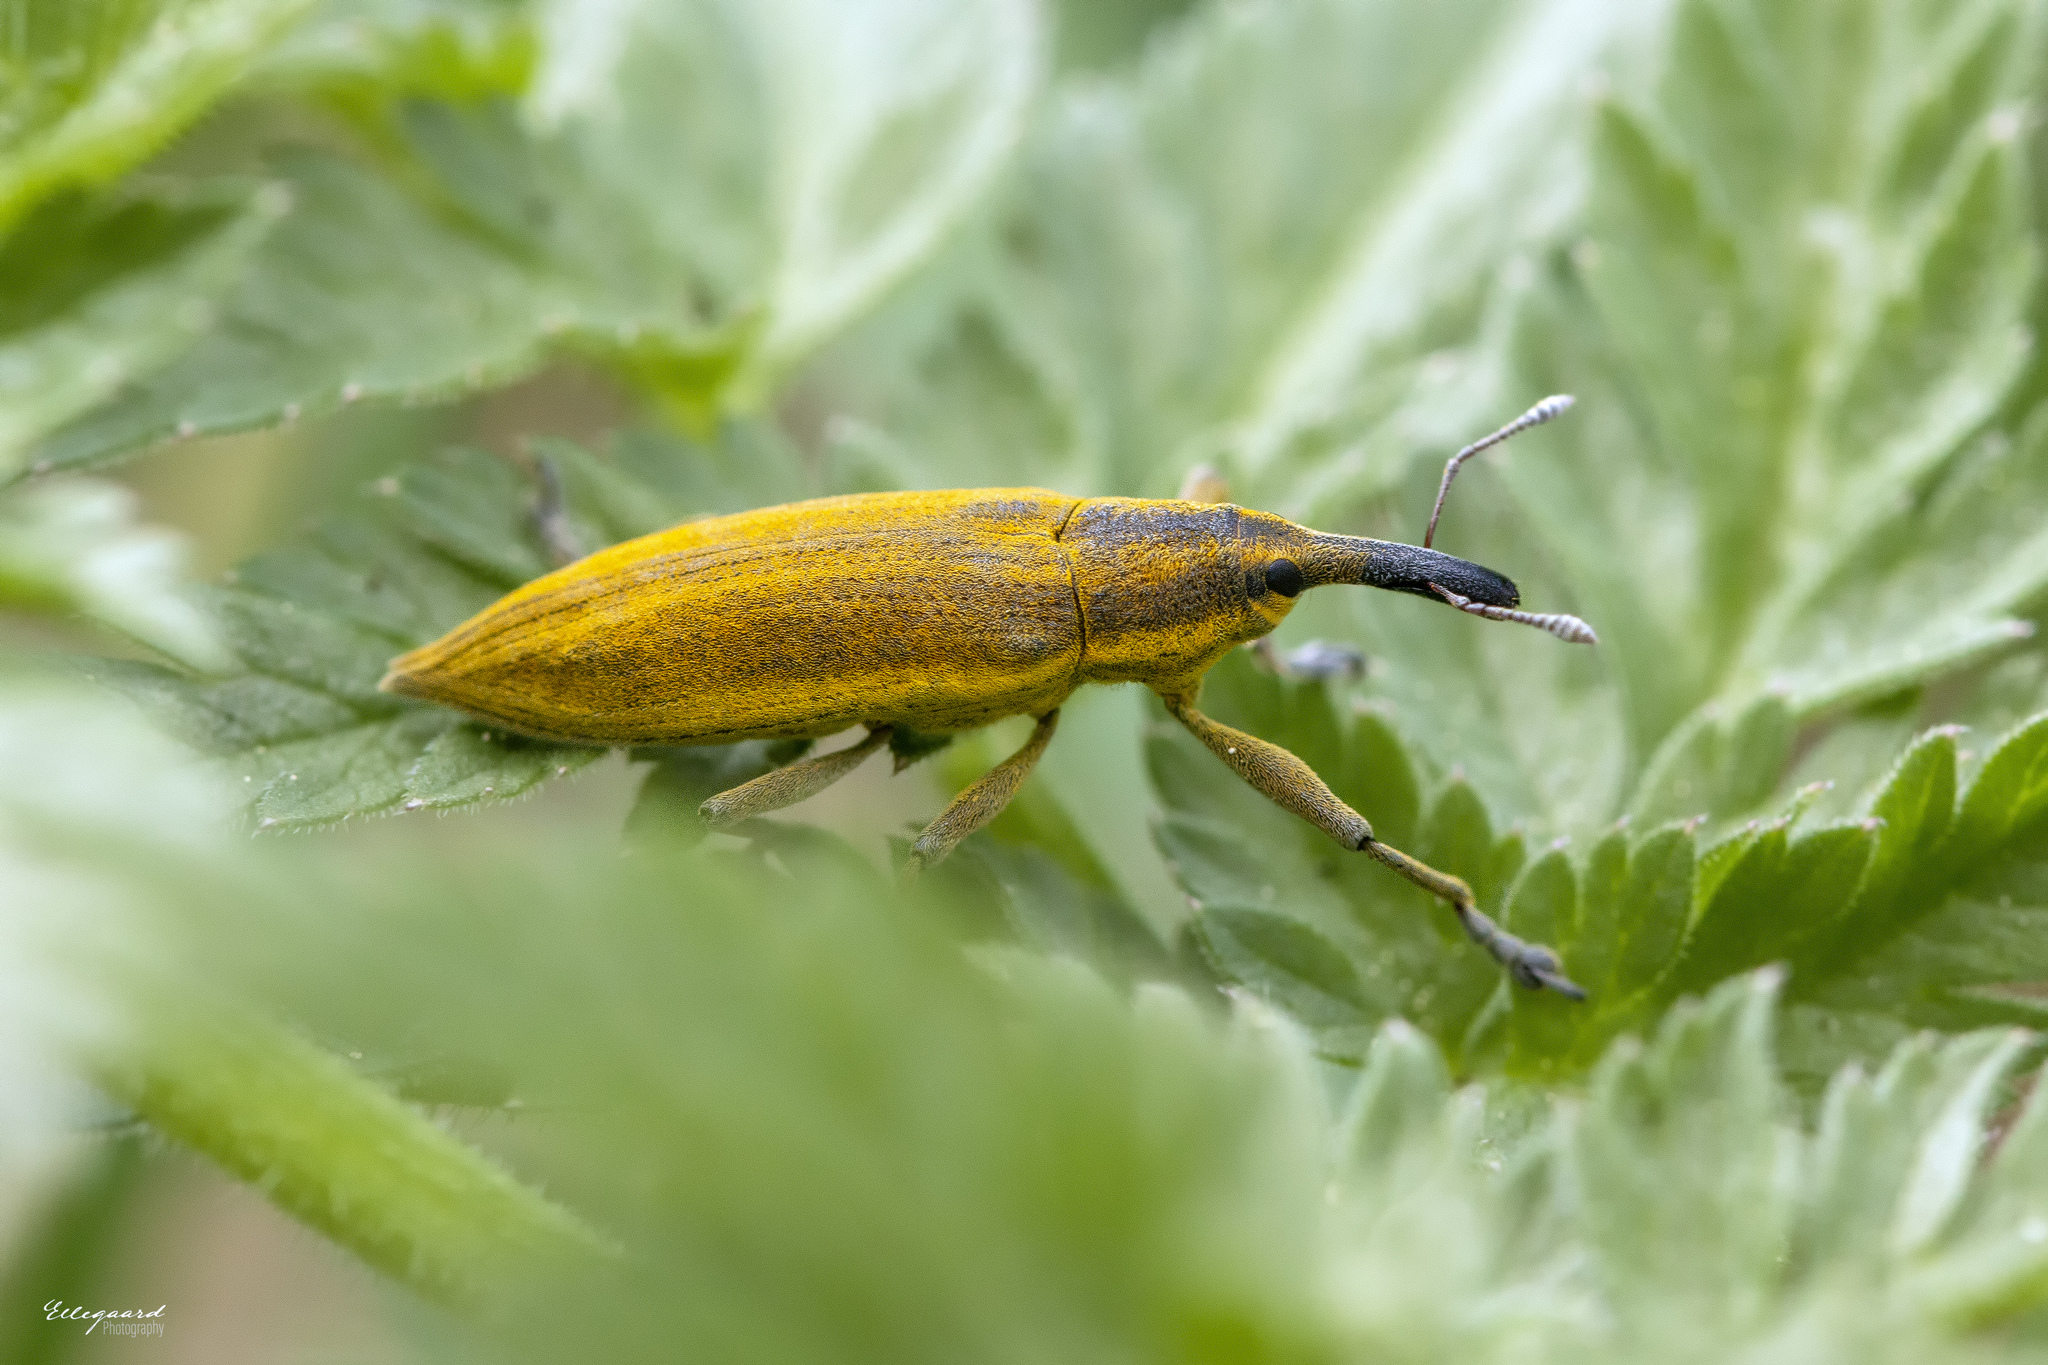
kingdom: Animalia
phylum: Arthropoda
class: Insecta
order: Coleoptera
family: Curculionidae
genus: Lixus
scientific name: Lixus iridis
